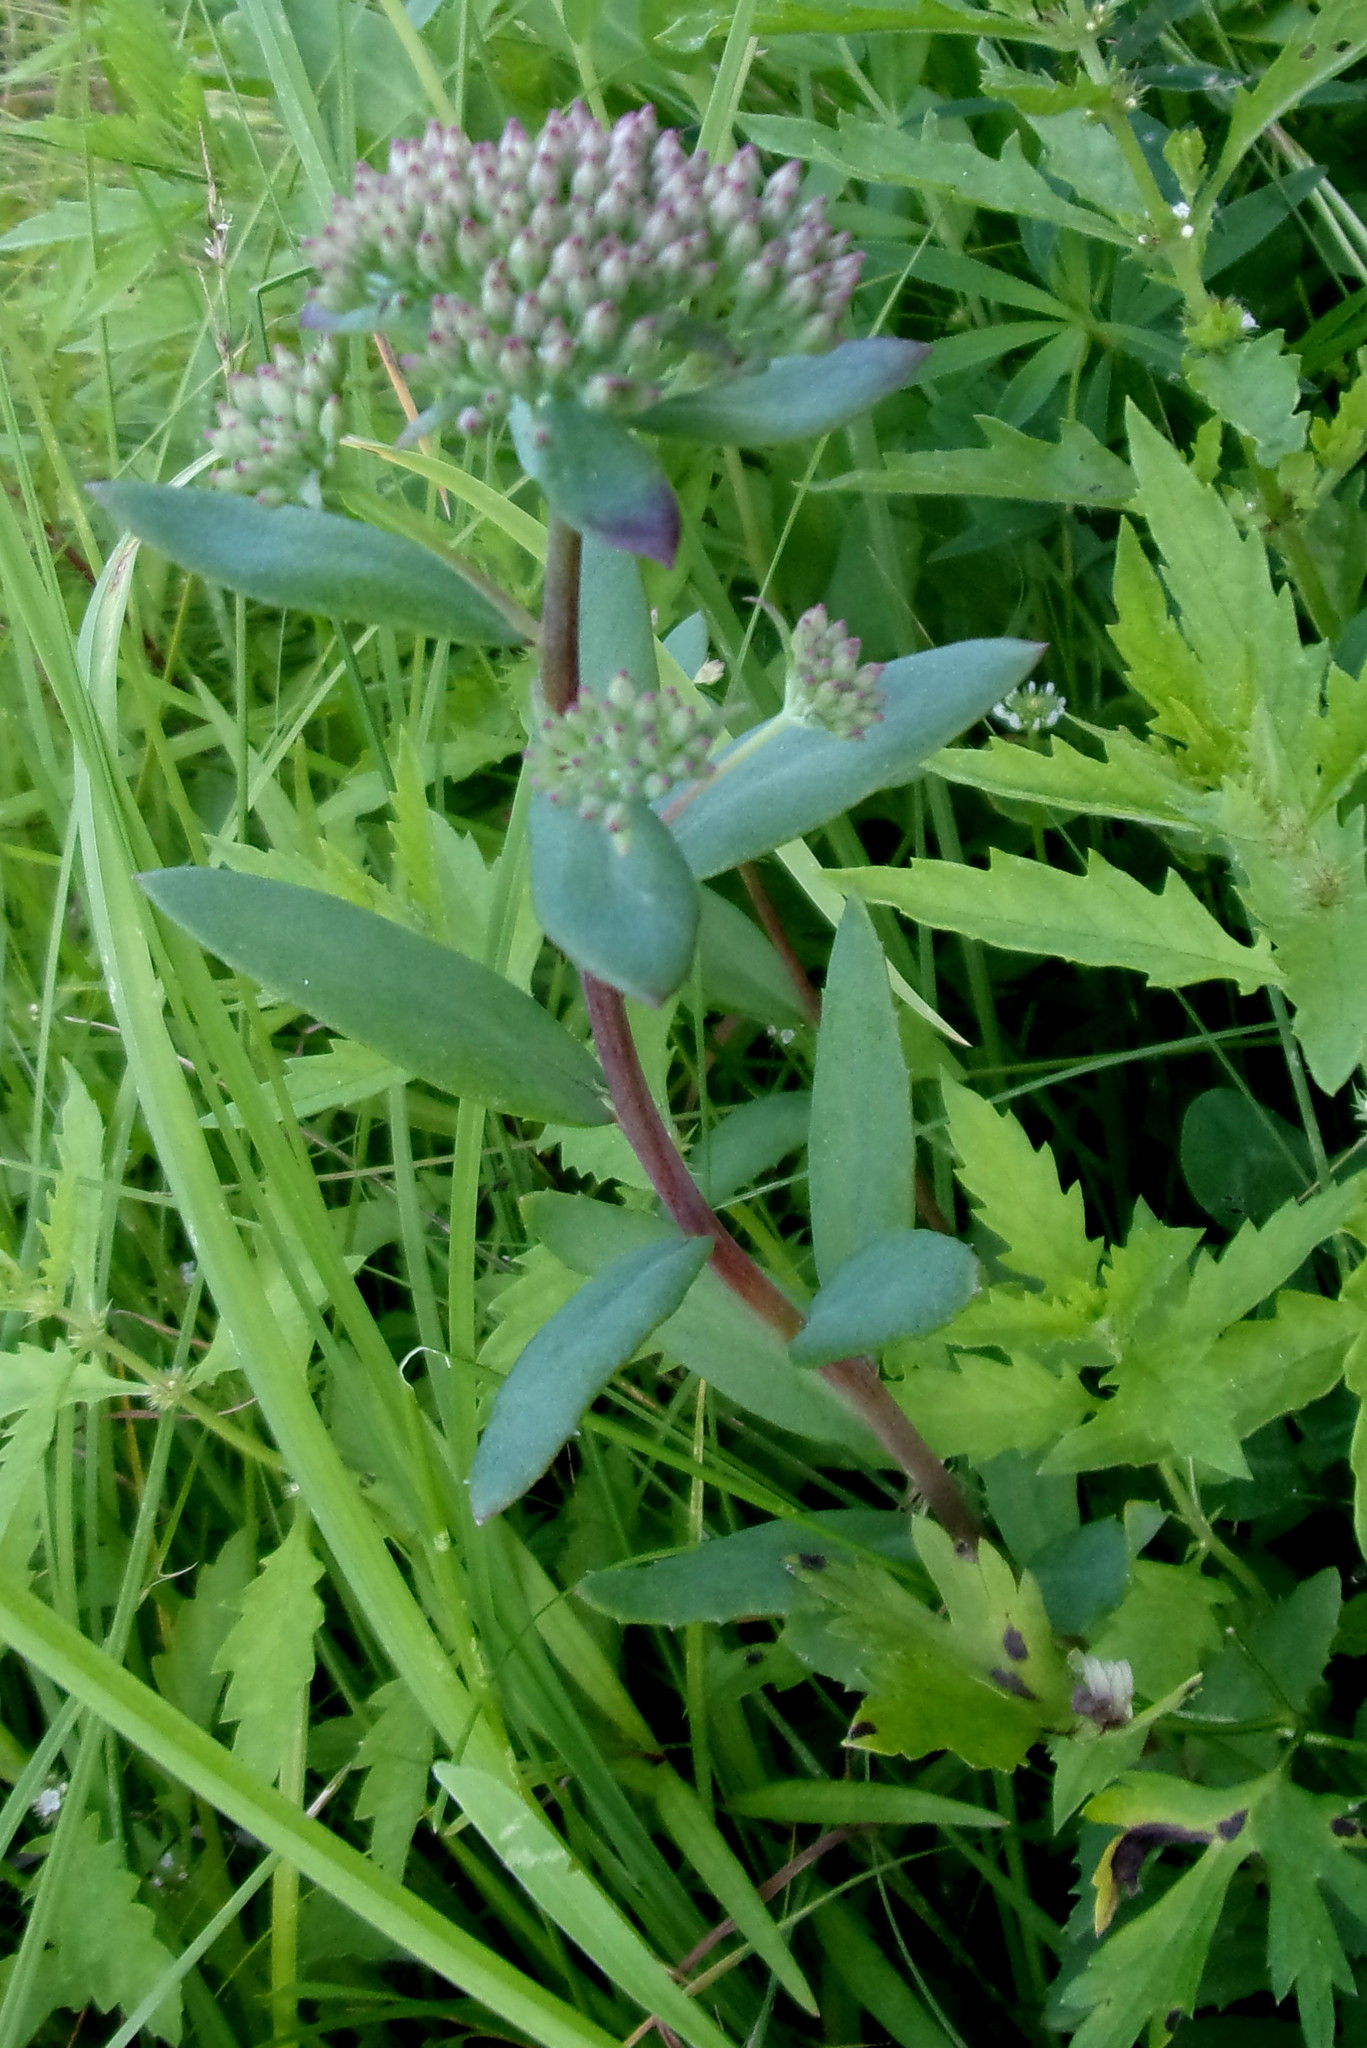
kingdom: Plantae
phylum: Tracheophyta
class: Magnoliopsida
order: Saxifragales
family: Crassulaceae
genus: Hylotelephium
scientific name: Hylotelephium telephium
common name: Live-forever
